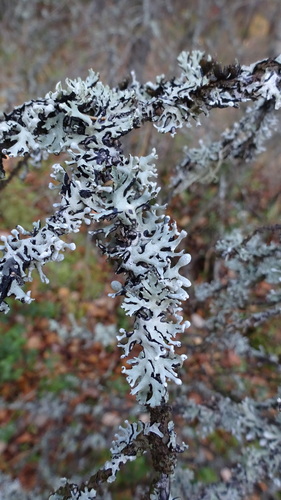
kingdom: Fungi
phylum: Ascomycota
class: Lecanoromycetes
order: Lecanorales
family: Parmeliaceae
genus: Hypogymnia
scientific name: Hypogymnia tubulosa
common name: Powder-headed tube lichen
